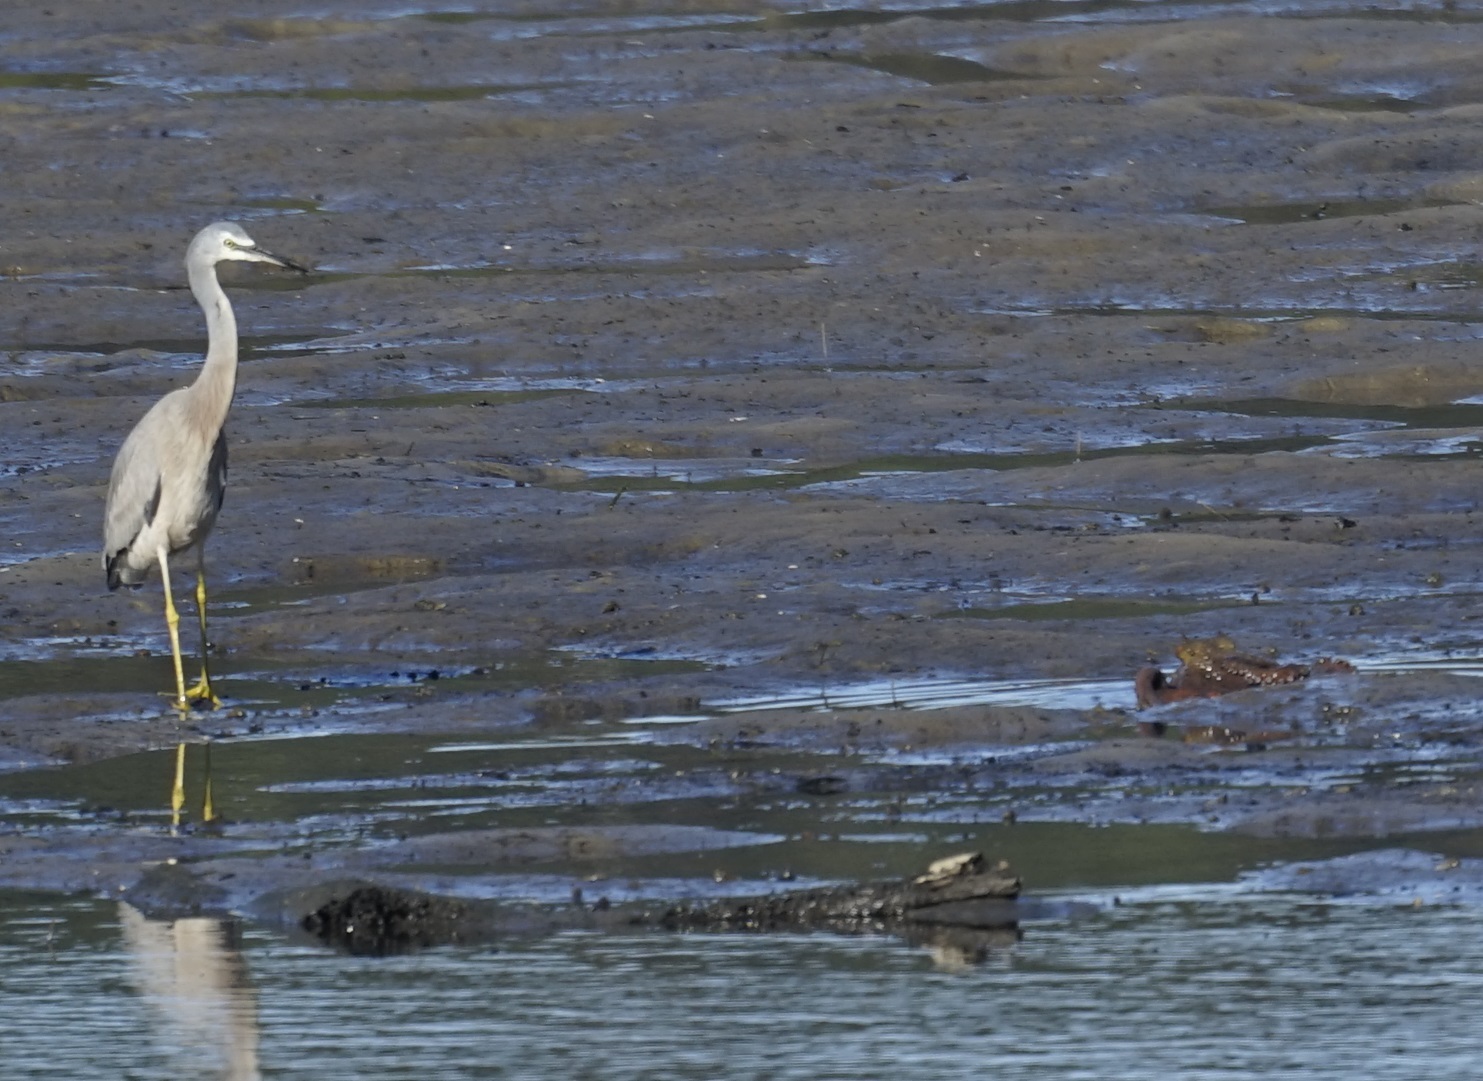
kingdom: Animalia
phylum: Chordata
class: Aves
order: Pelecaniformes
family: Ardeidae
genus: Egretta
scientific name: Egretta novaehollandiae
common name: White-faced heron
